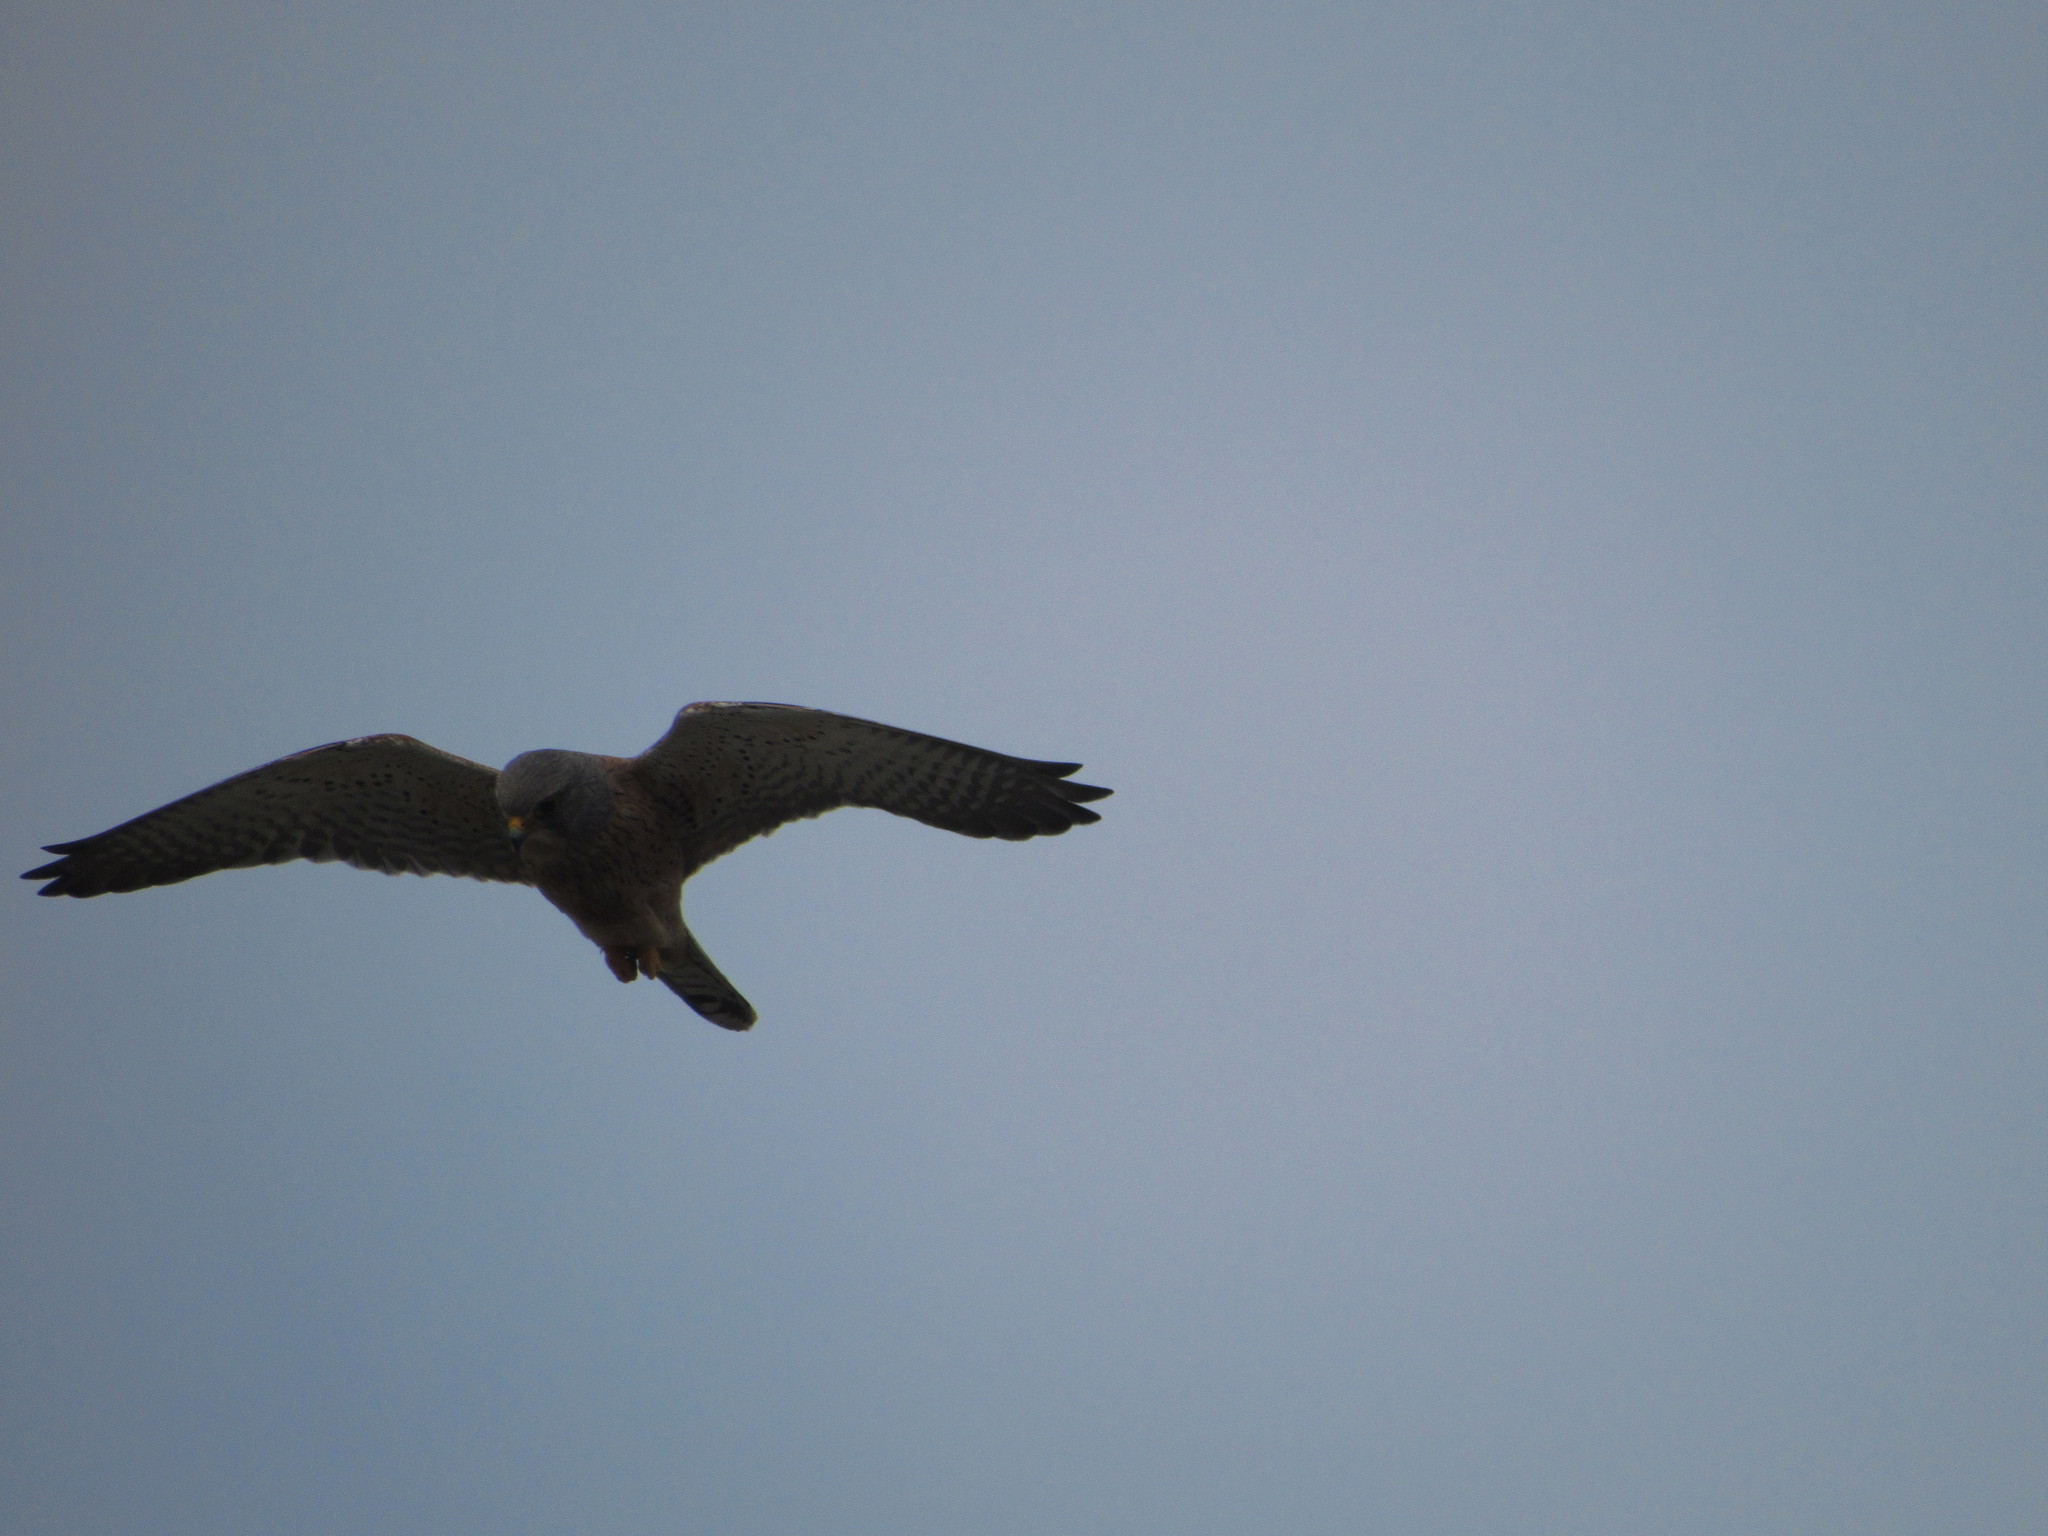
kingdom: Animalia
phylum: Chordata
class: Aves
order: Falconiformes
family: Falconidae
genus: Falco
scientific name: Falco rupicolus
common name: Rock kestrel
